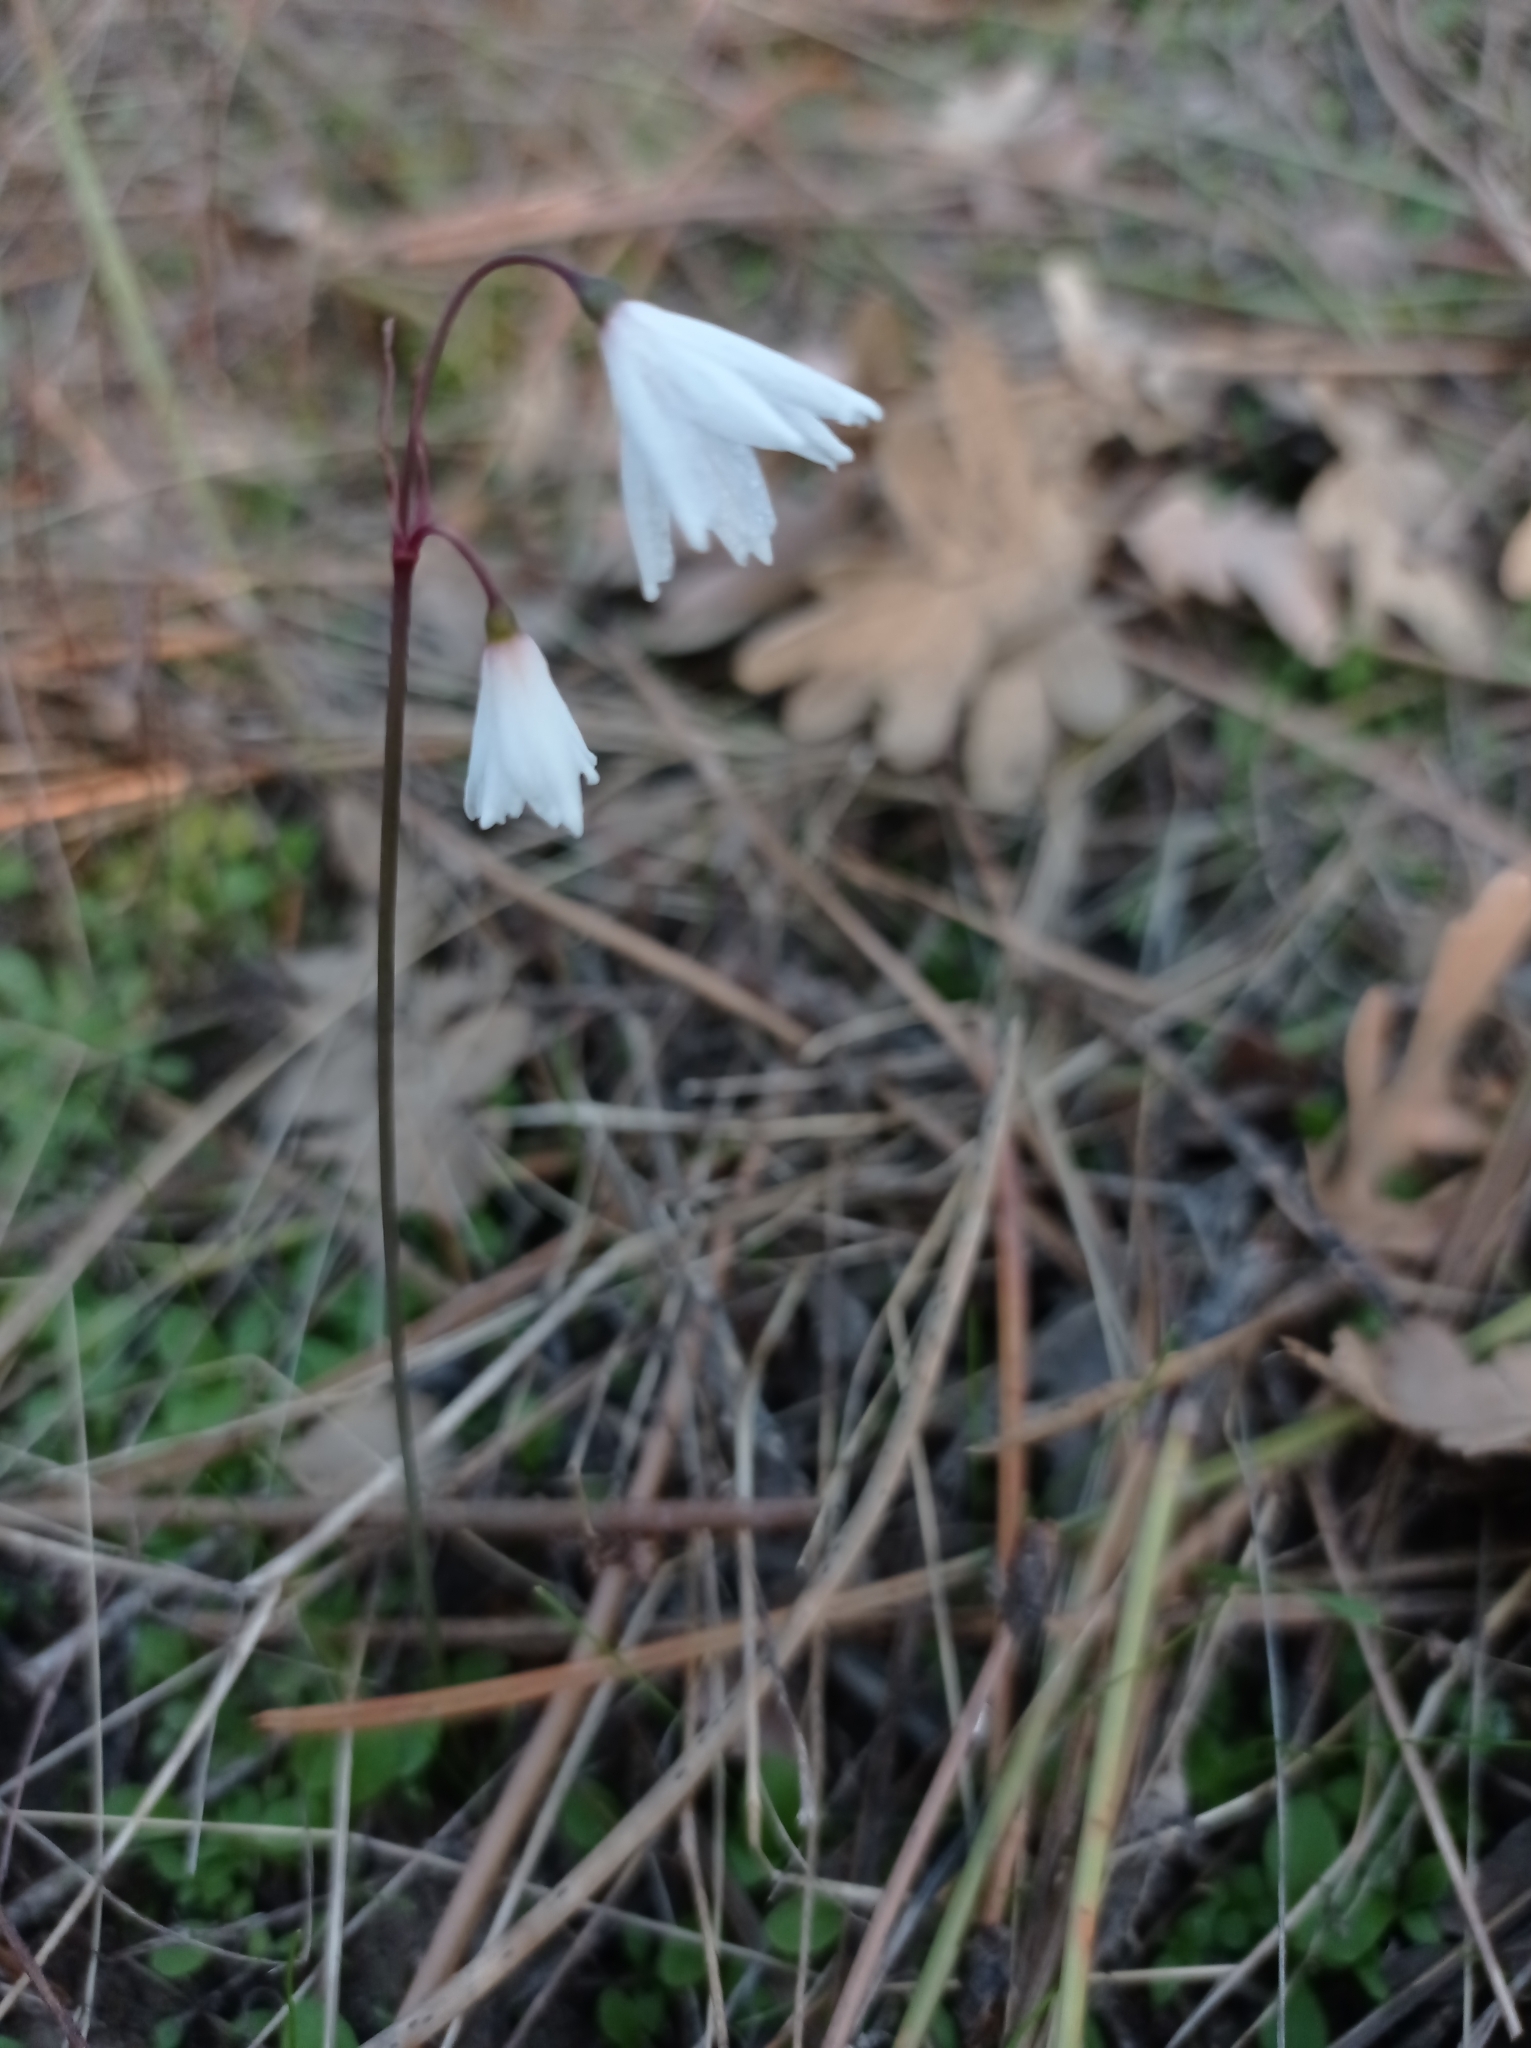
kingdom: Plantae
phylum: Tracheophyta
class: Liliopsida
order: Asparagales
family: Amaryllidaceae
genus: Acis
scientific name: Acis autumnalis
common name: Autumn snowflake
